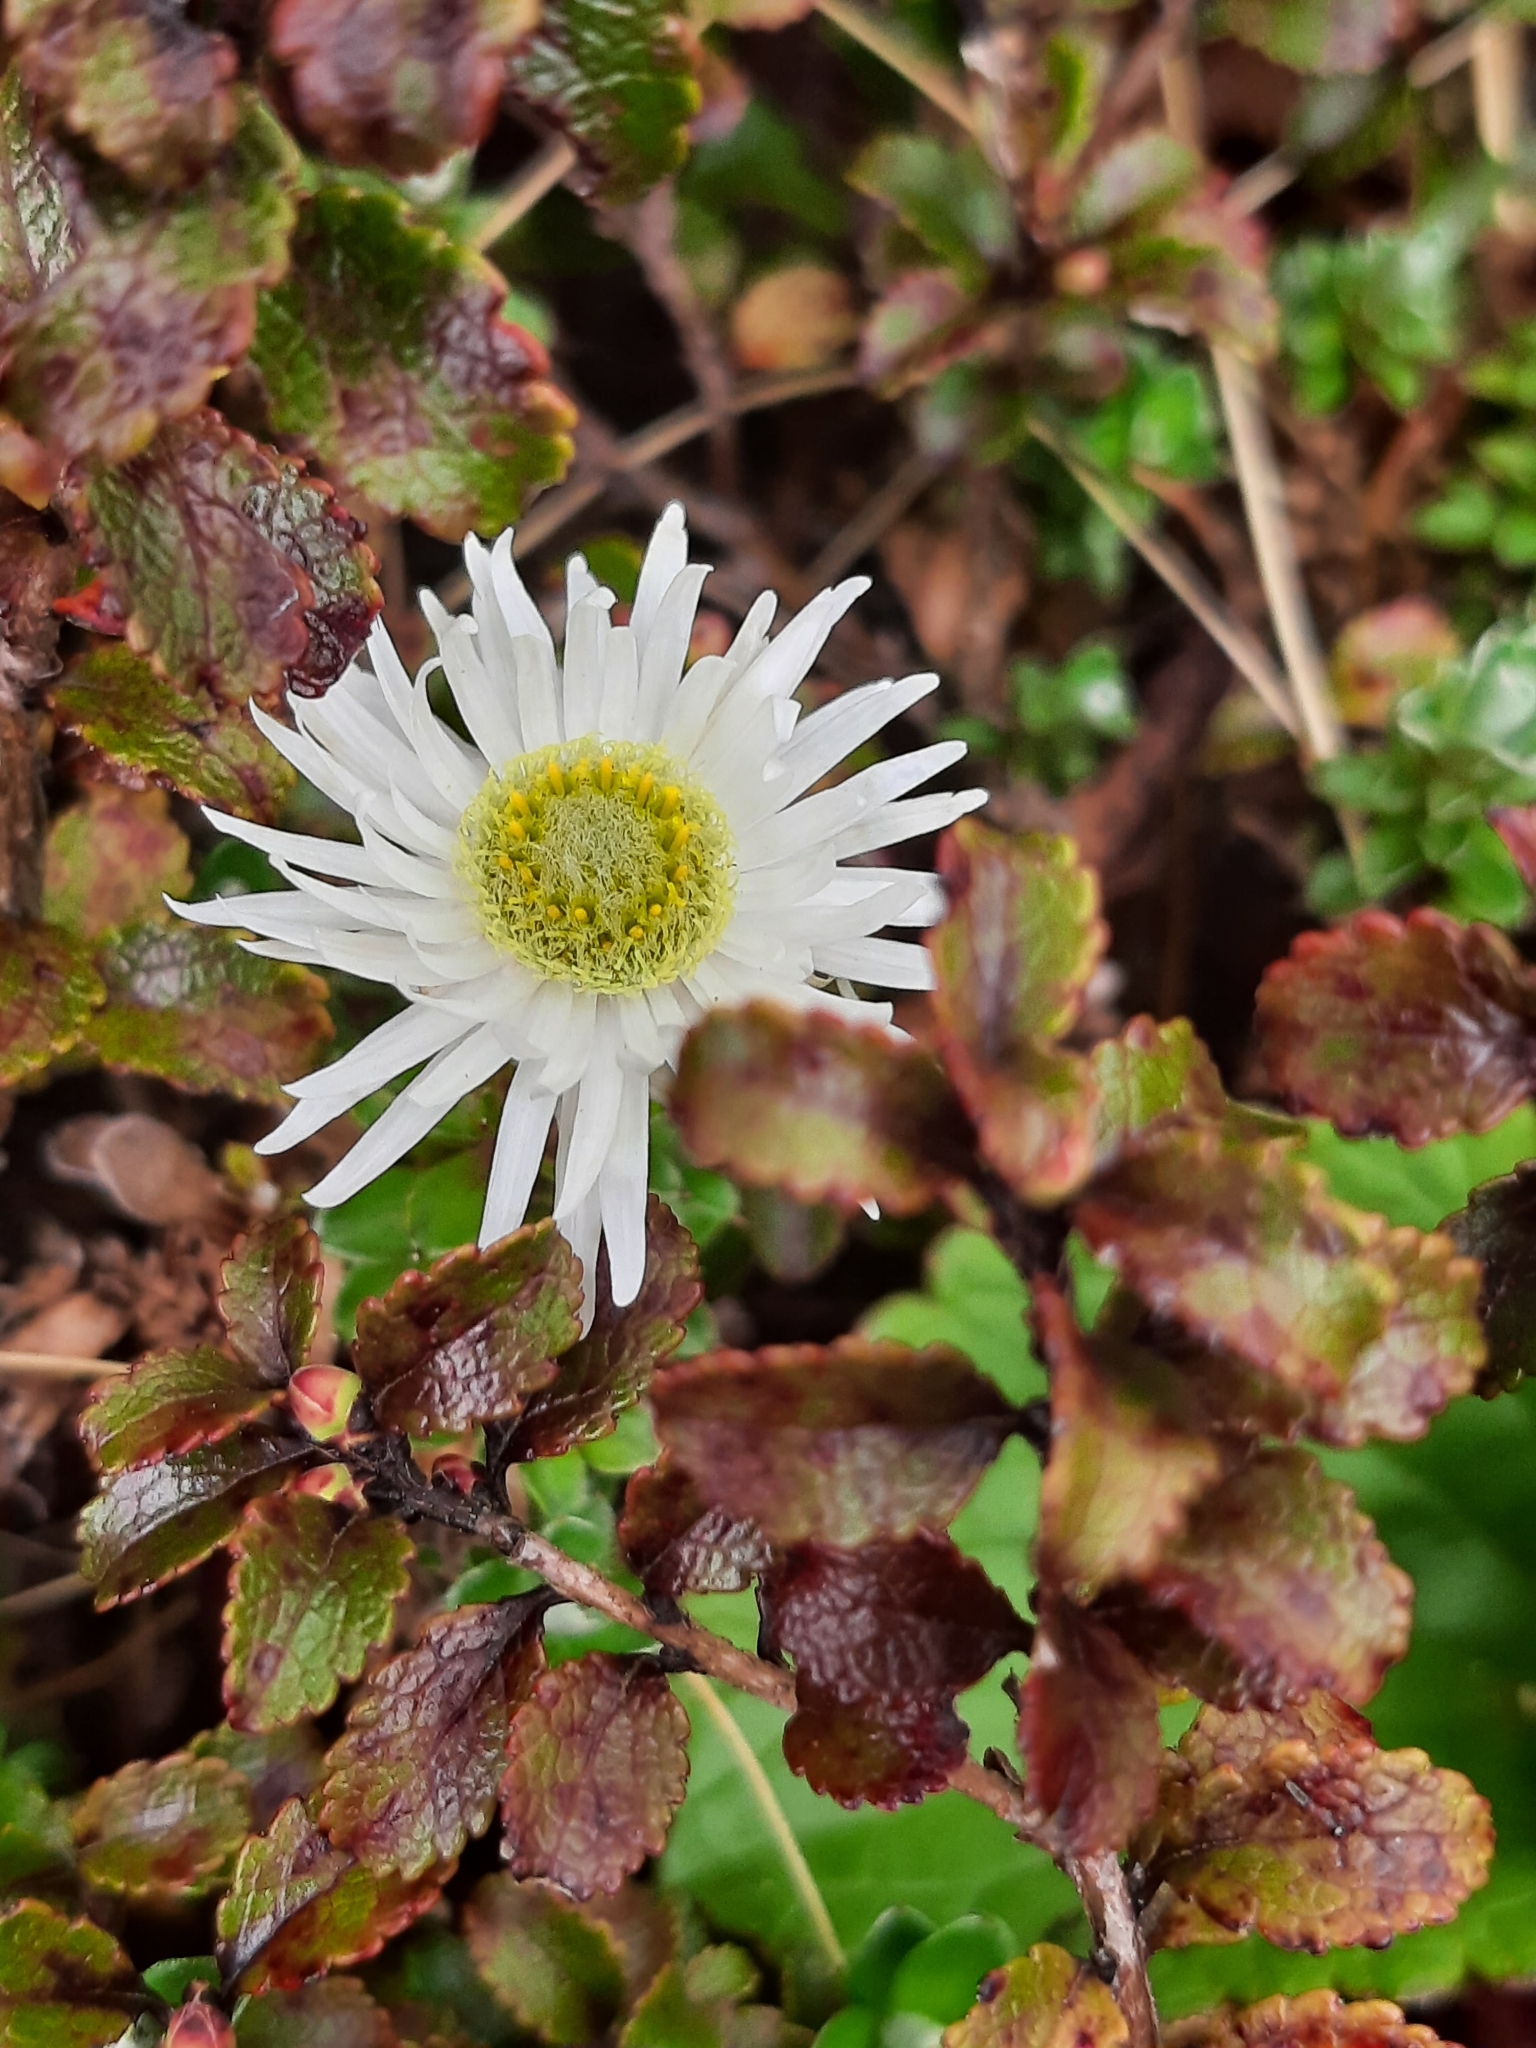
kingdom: Plantae
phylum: Tracheophyta
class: Magnoliopsida
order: Asterales
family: Asteraceae
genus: Anaphalioides
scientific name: Anaphalioides alpina
